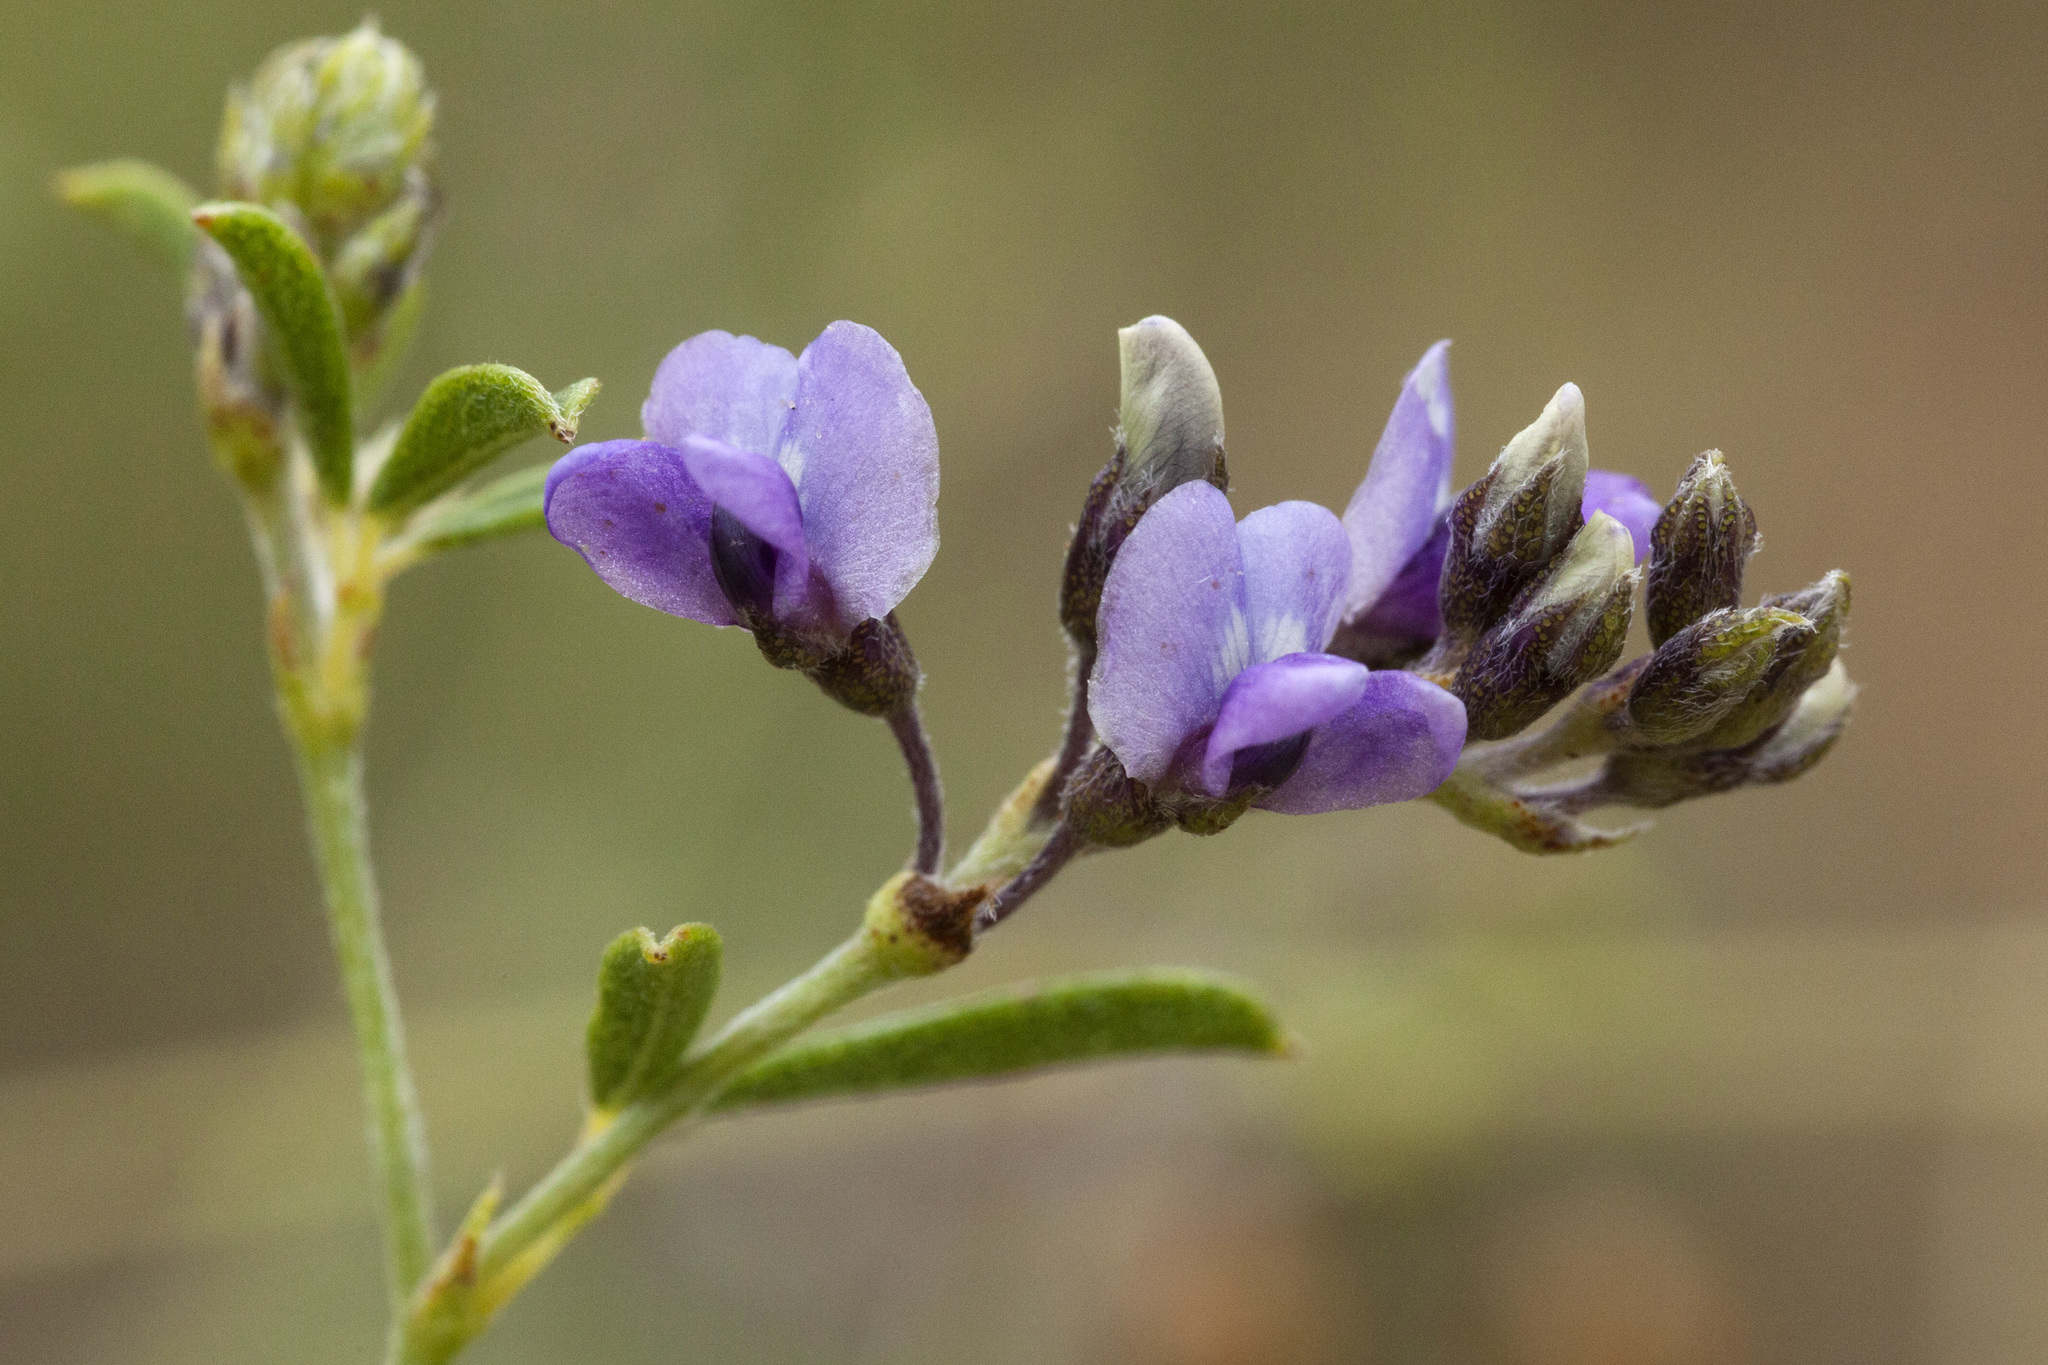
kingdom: Plantae
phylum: Tracheophyta
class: Magnoliopsida
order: Fabales
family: Fabaceae
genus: Pediomelum
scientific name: Pediomelum tenuiflorum
